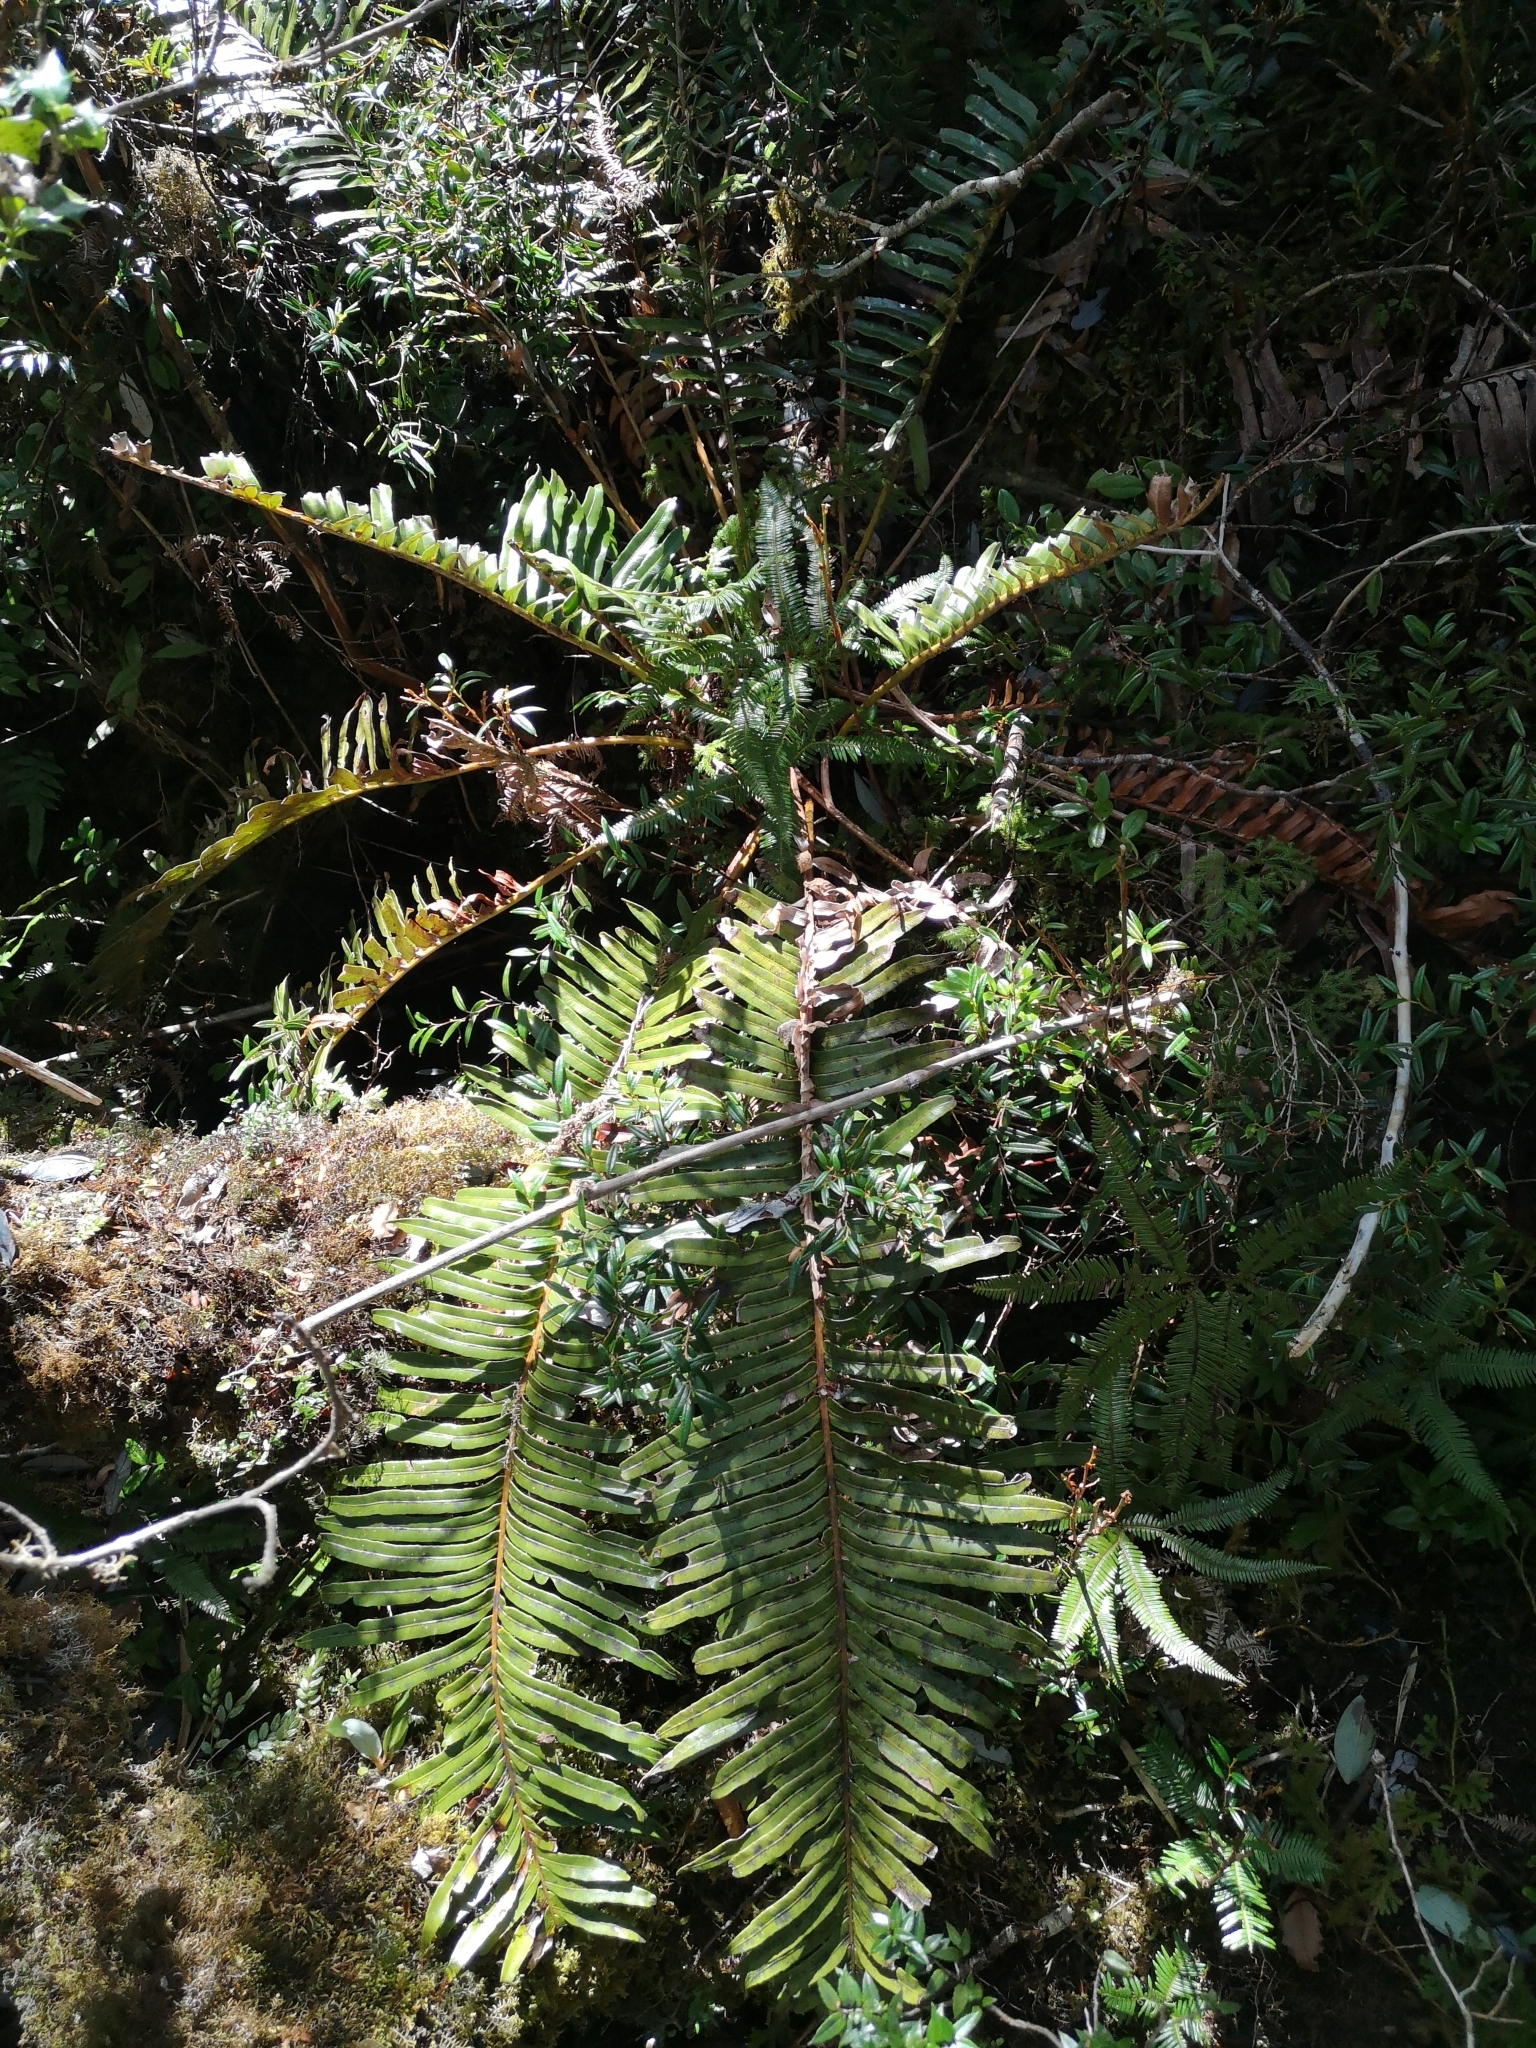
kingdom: Plantae
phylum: Tracheophyta
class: Polypodiopsida
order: Polypodiales
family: Blechnaceae
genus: Parablechnum
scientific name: Parablechnum chilense
